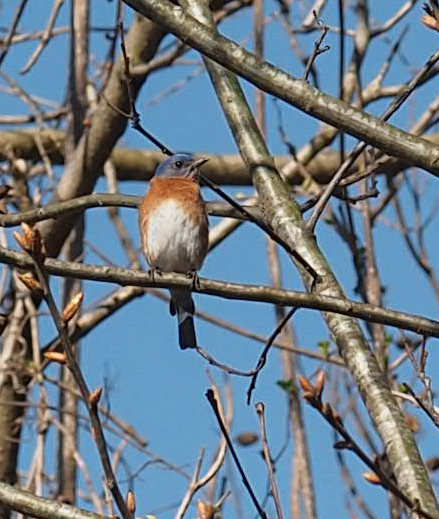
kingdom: Animalia
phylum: Chordata
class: Aves
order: Passeriformes
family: Turdidae
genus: Sialia
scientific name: Sialia sialis
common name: Eastern bluebird
